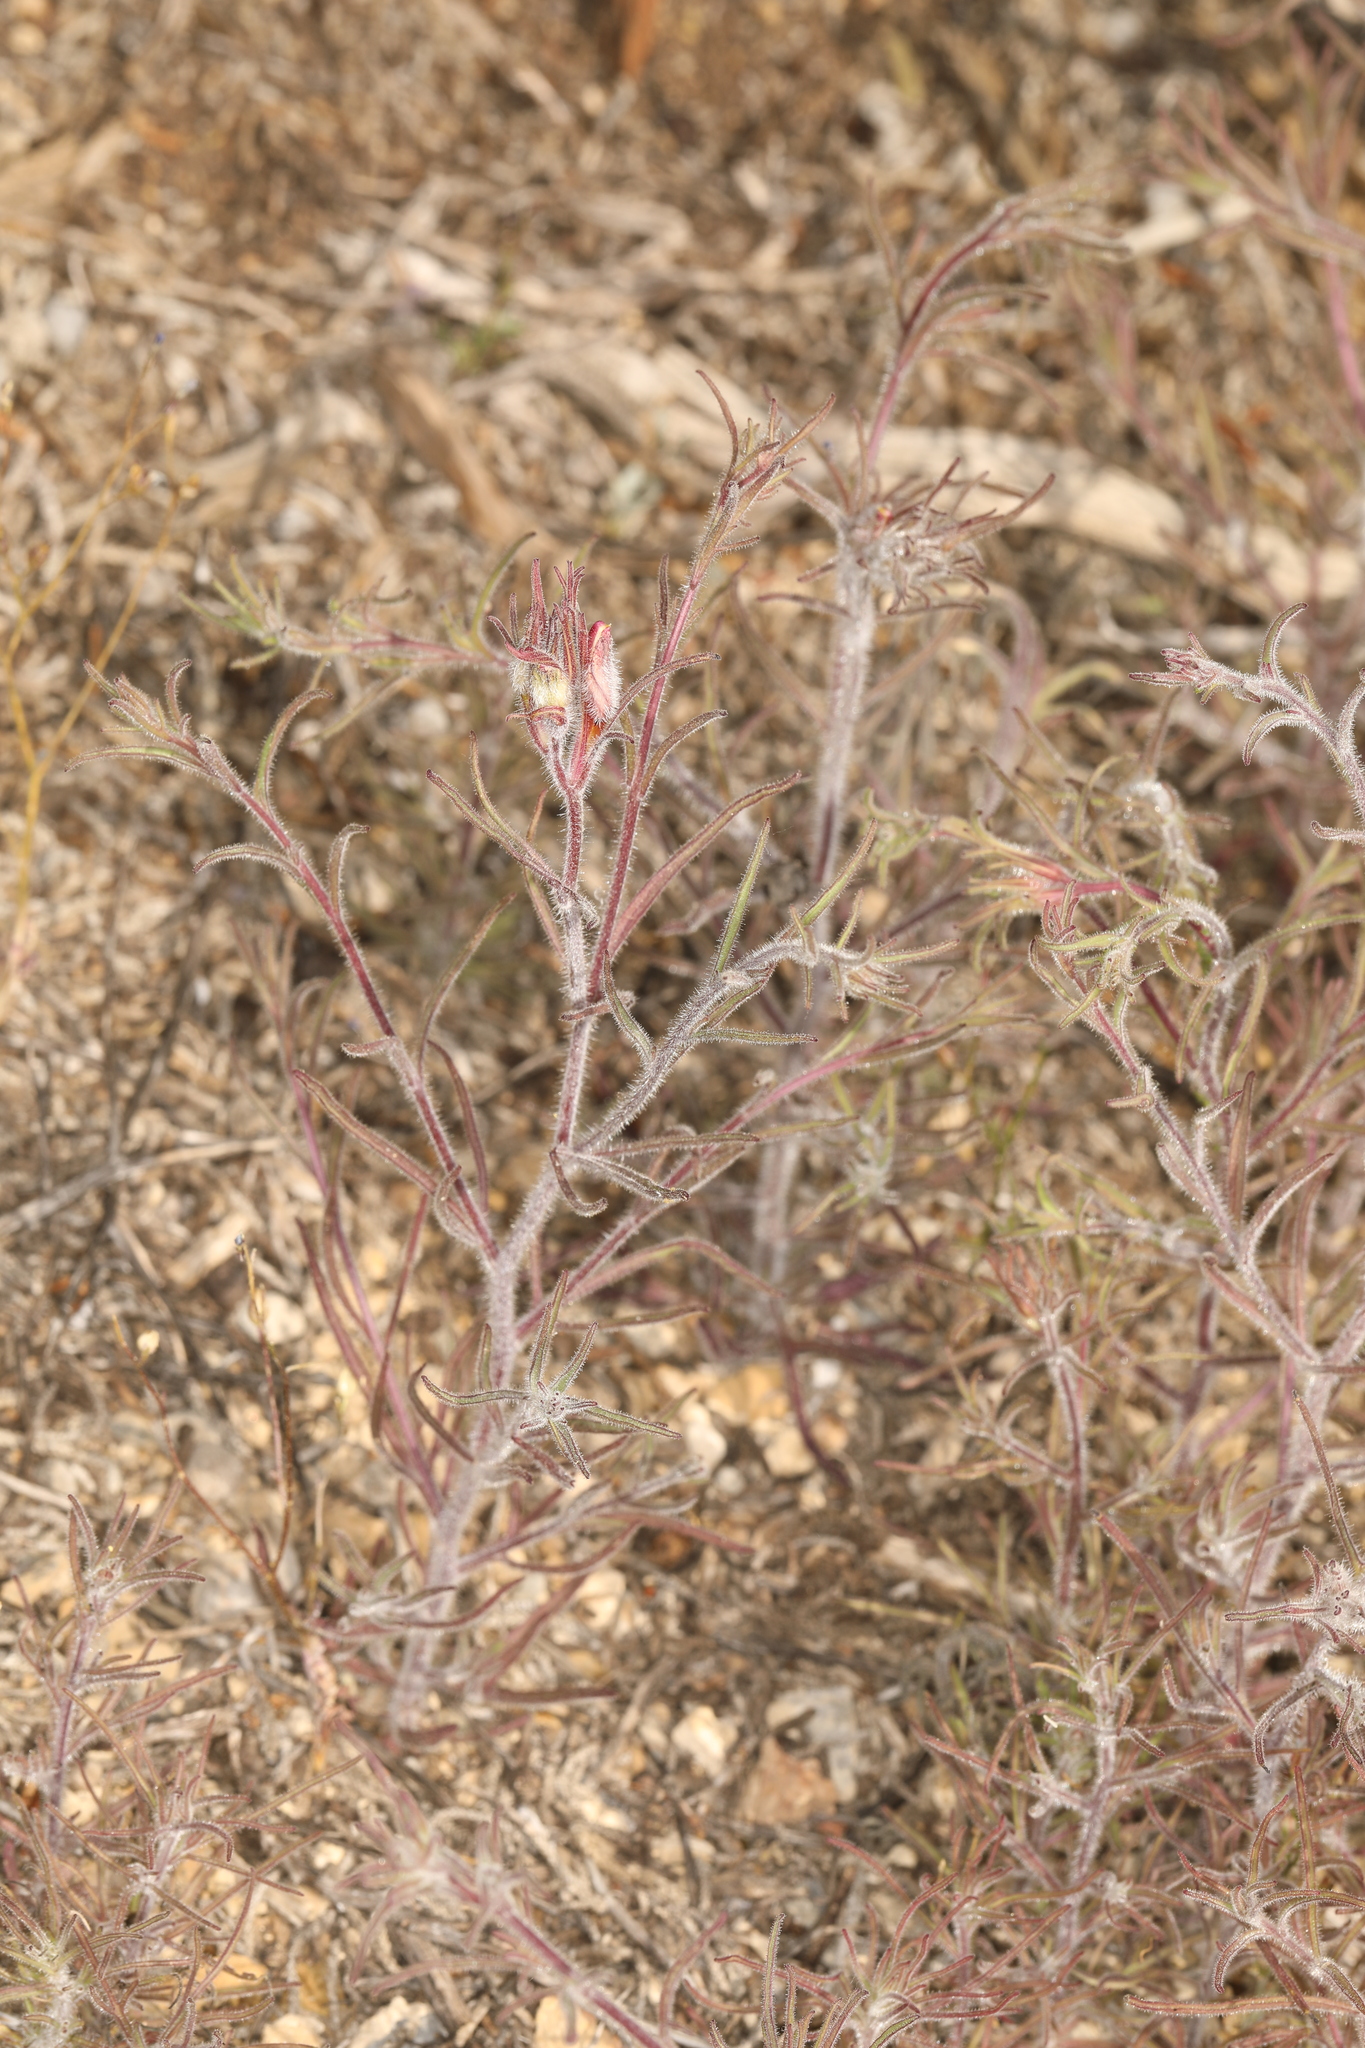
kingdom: Plantae
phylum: Tracheophyta
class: Magnoliopsida
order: Lamiales
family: Orobanchaceae
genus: Cordylanthus
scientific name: Cordylanthus kingii
